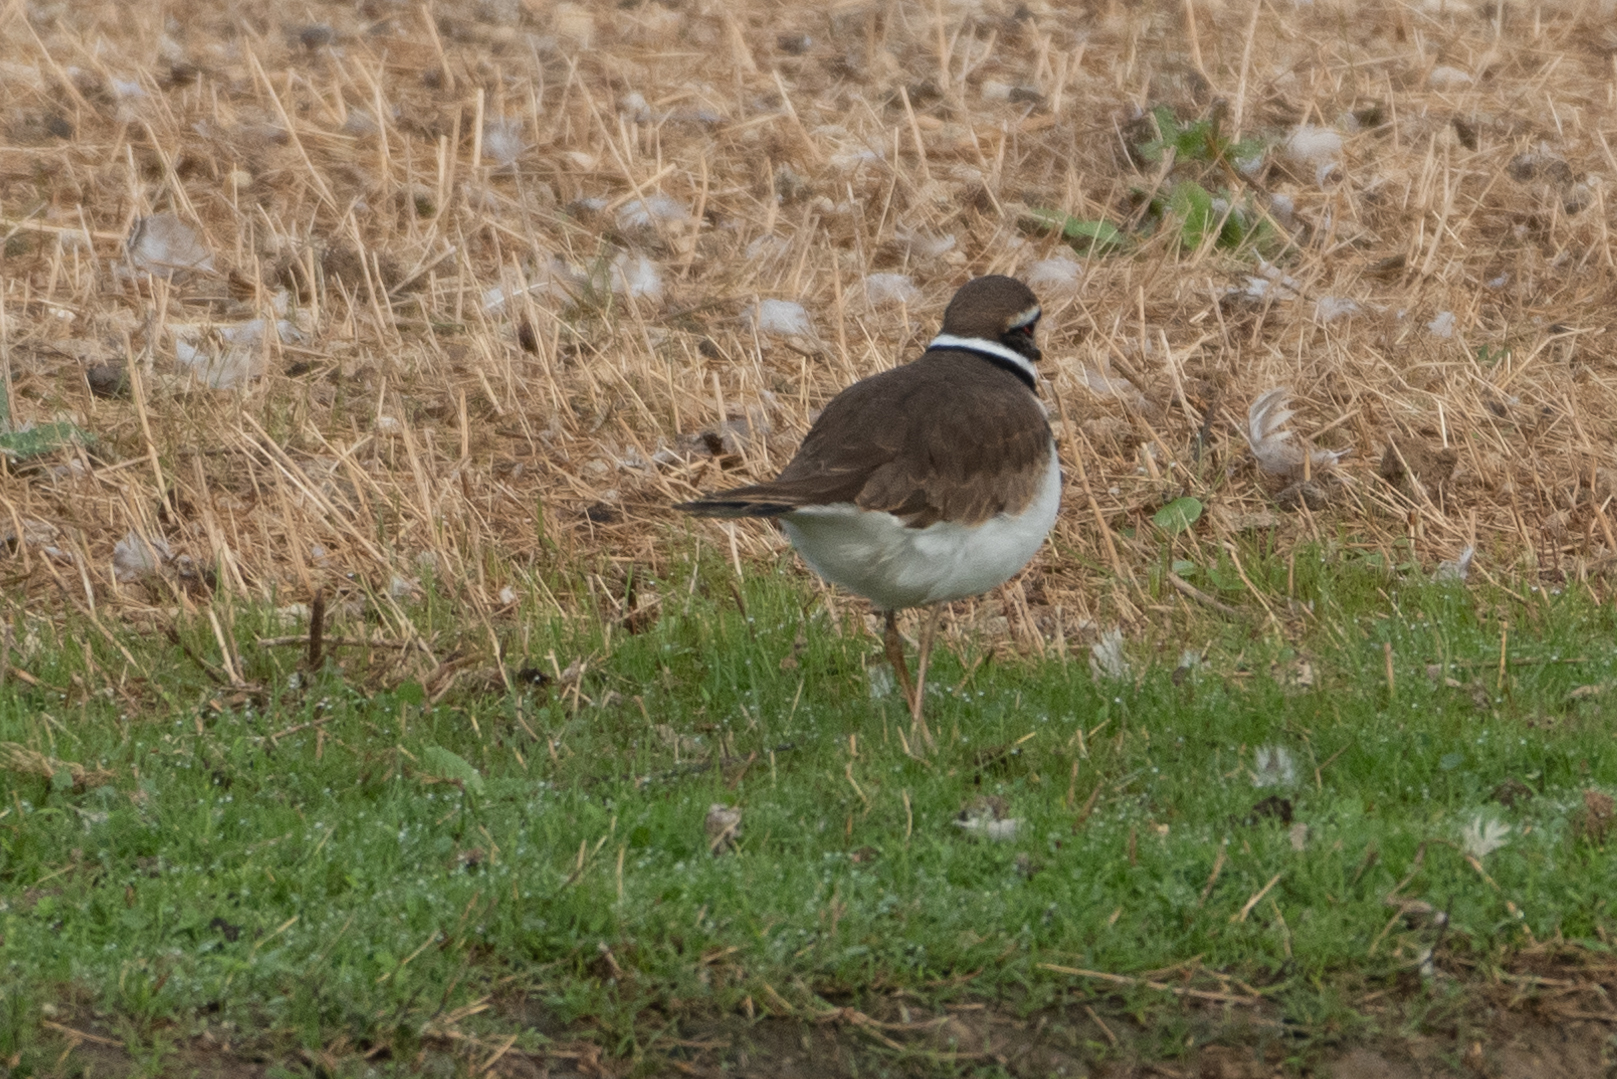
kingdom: Animalia
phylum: Chordata
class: Aves
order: Charadriiformes
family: Charadriidae
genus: Charadrius
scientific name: Charadrius vociferus
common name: Killdeer
